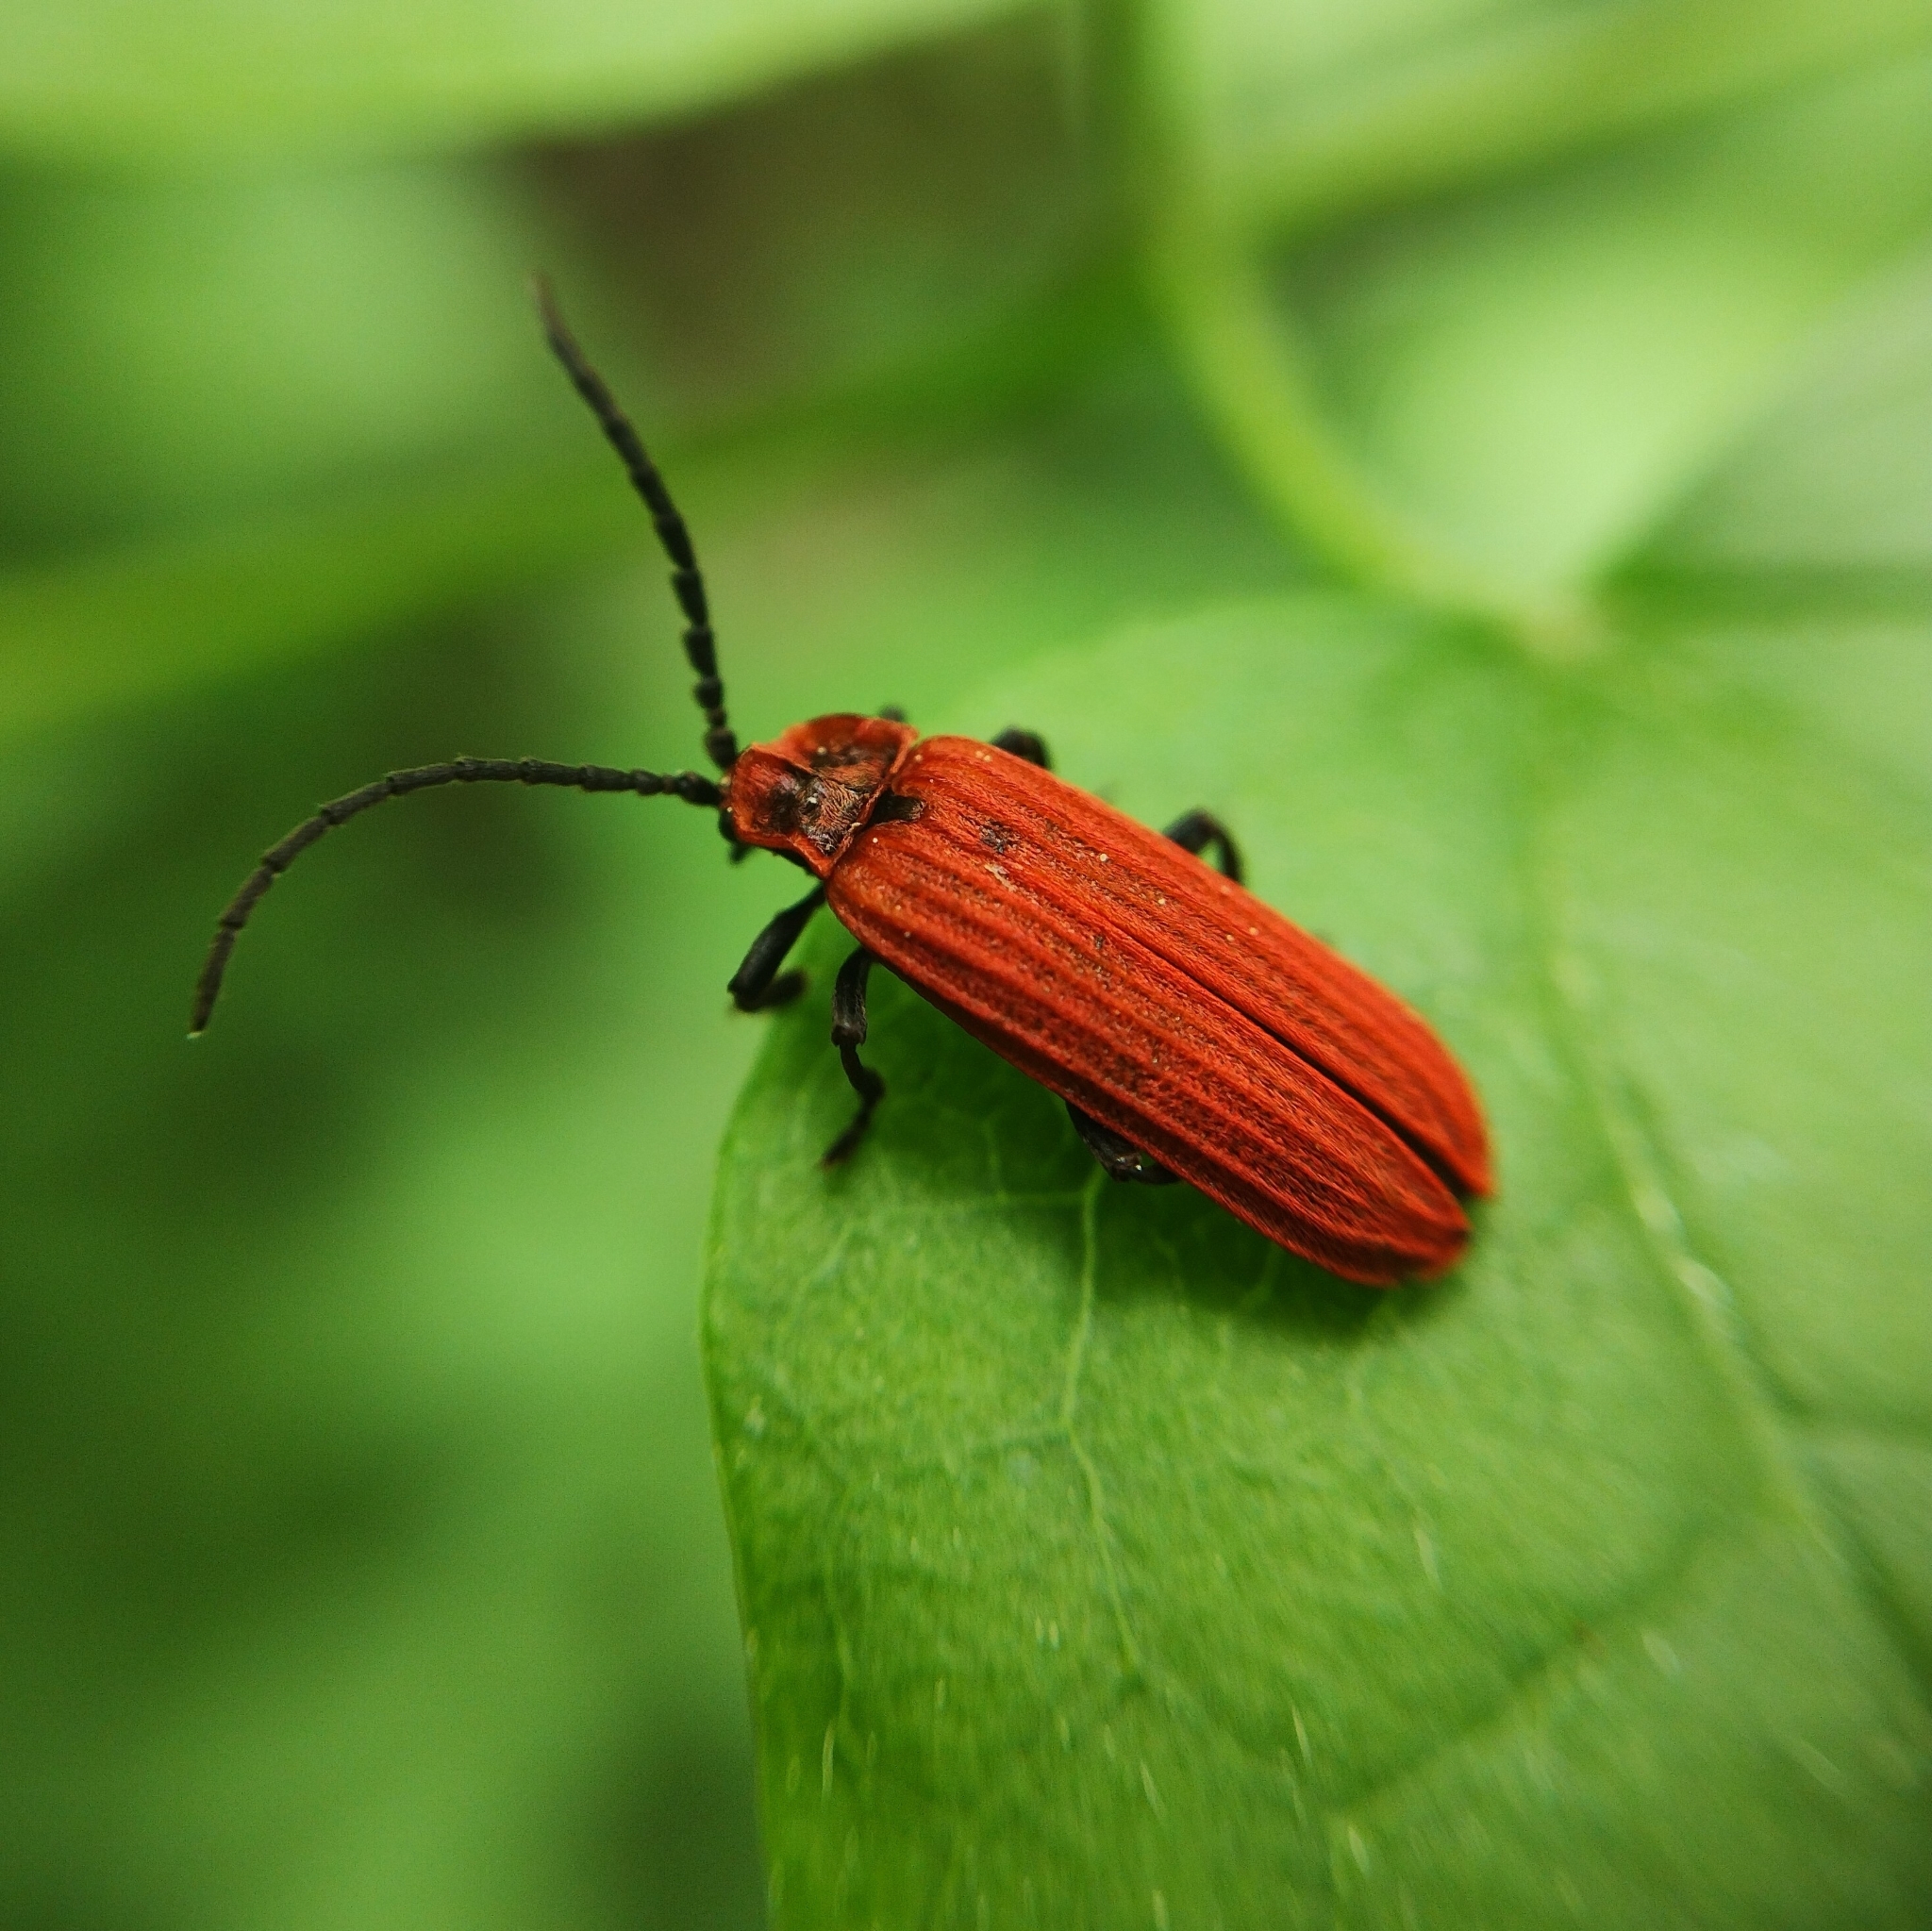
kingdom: Animalia
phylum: Arthropoda
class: Insecta
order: Coleoptera
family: Lycidae
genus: Lopheros
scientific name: Lopheros rubens
